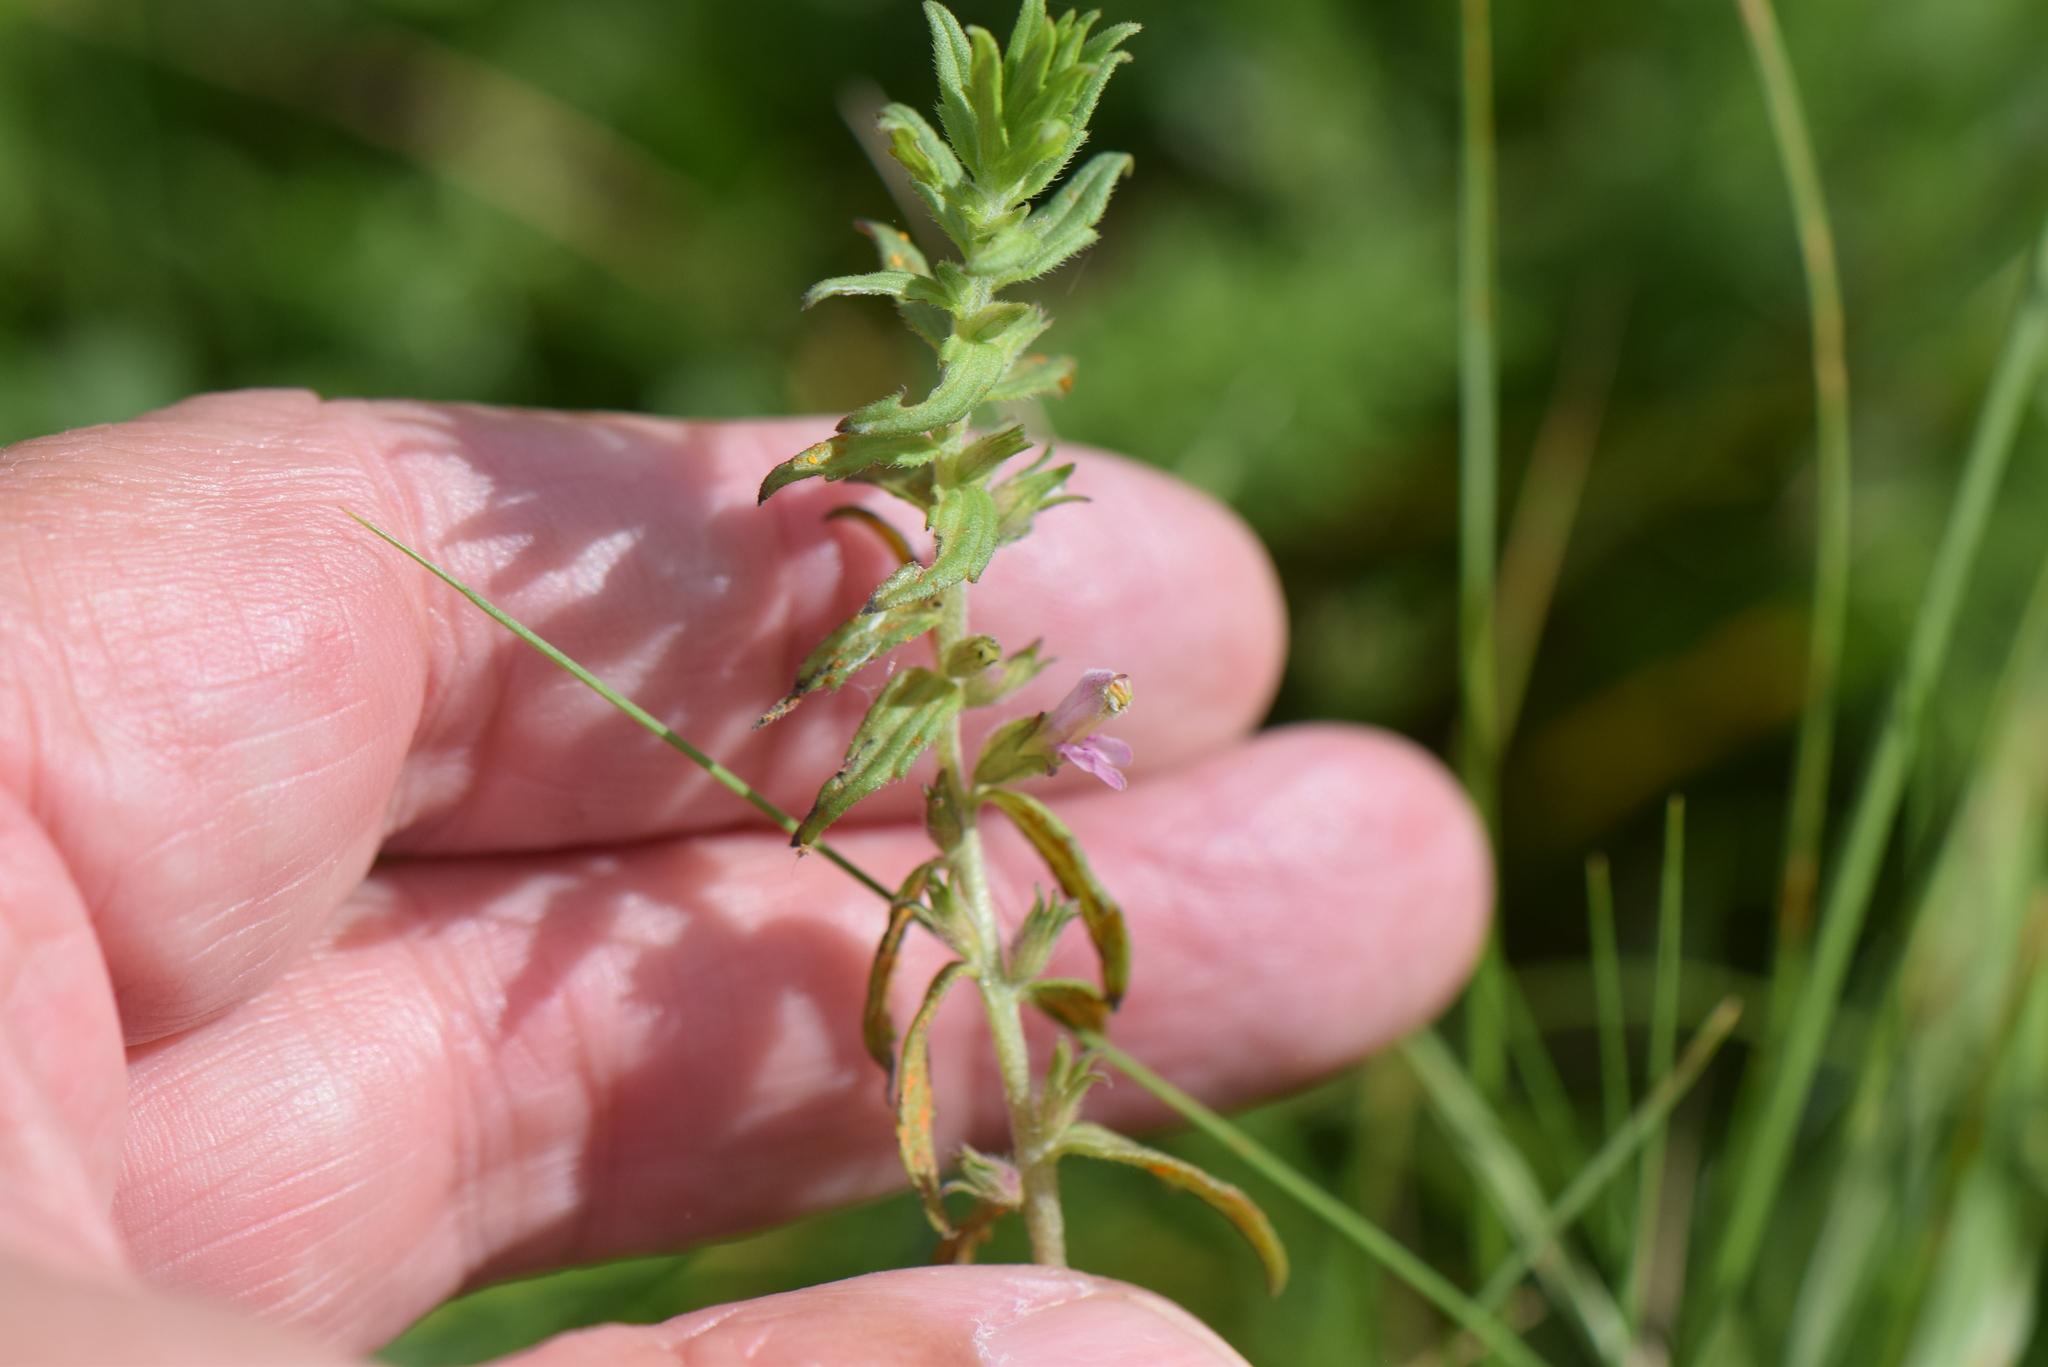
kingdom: Plantae
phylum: Tracheophyta
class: Magnoliopsida
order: Lamiales
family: Orobanchaceae
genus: Odontites
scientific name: Odontites vulgaris
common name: Broomrape
